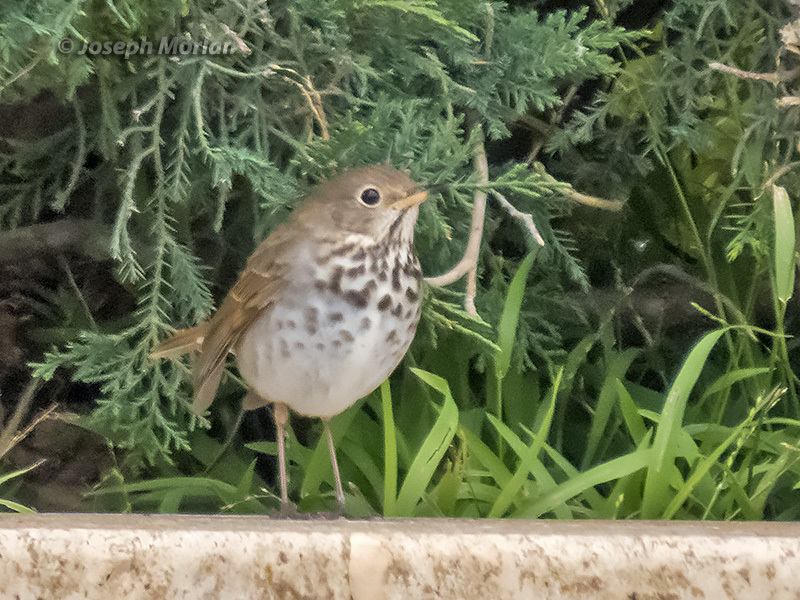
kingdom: Animalia
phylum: Chordata
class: Aves
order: Passeriformes
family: Turdidae
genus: Catharus
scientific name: Catharus guttatus
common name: Hermit thrush
